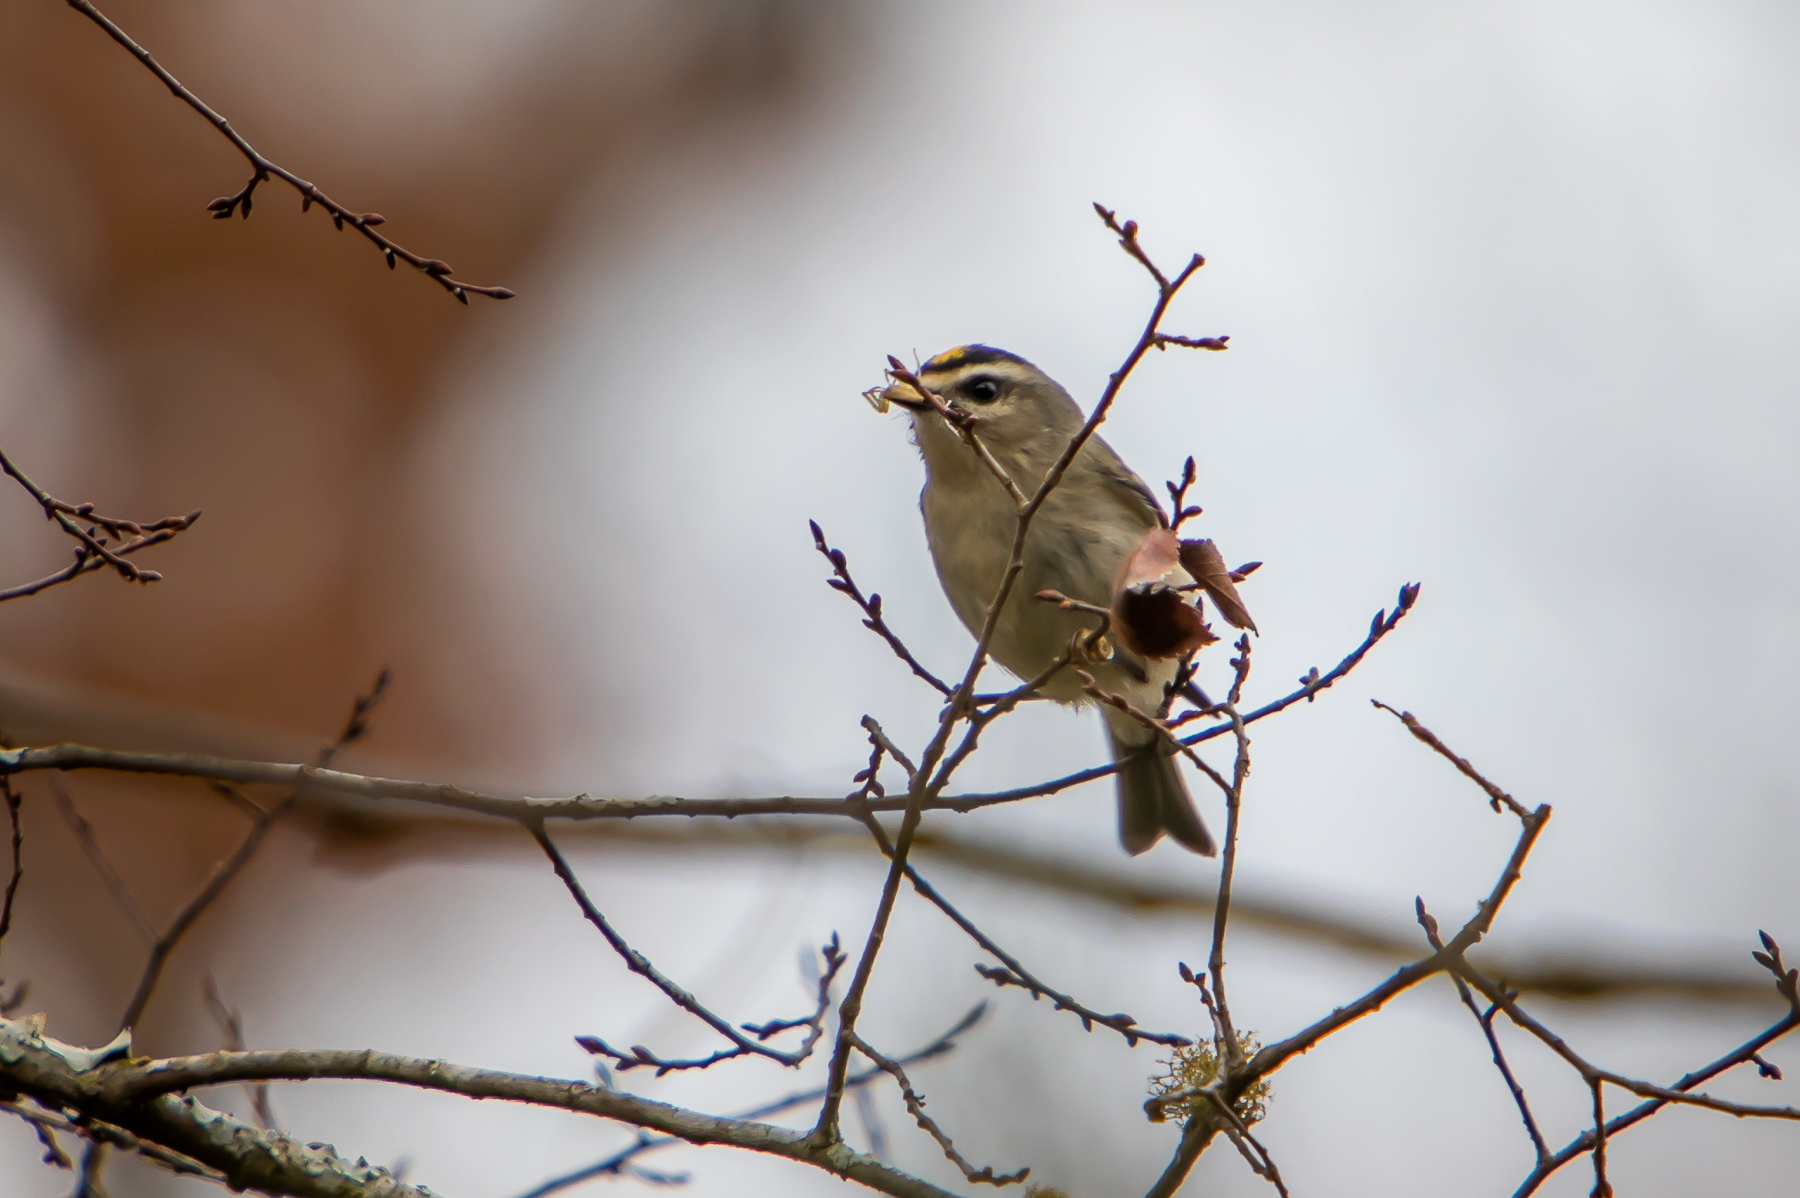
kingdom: Animalia
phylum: Chordata
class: Aves
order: Passeriformes
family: Regulidae
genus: Regulus
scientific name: Regulus satrapa
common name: Golden-crowned kinglet
